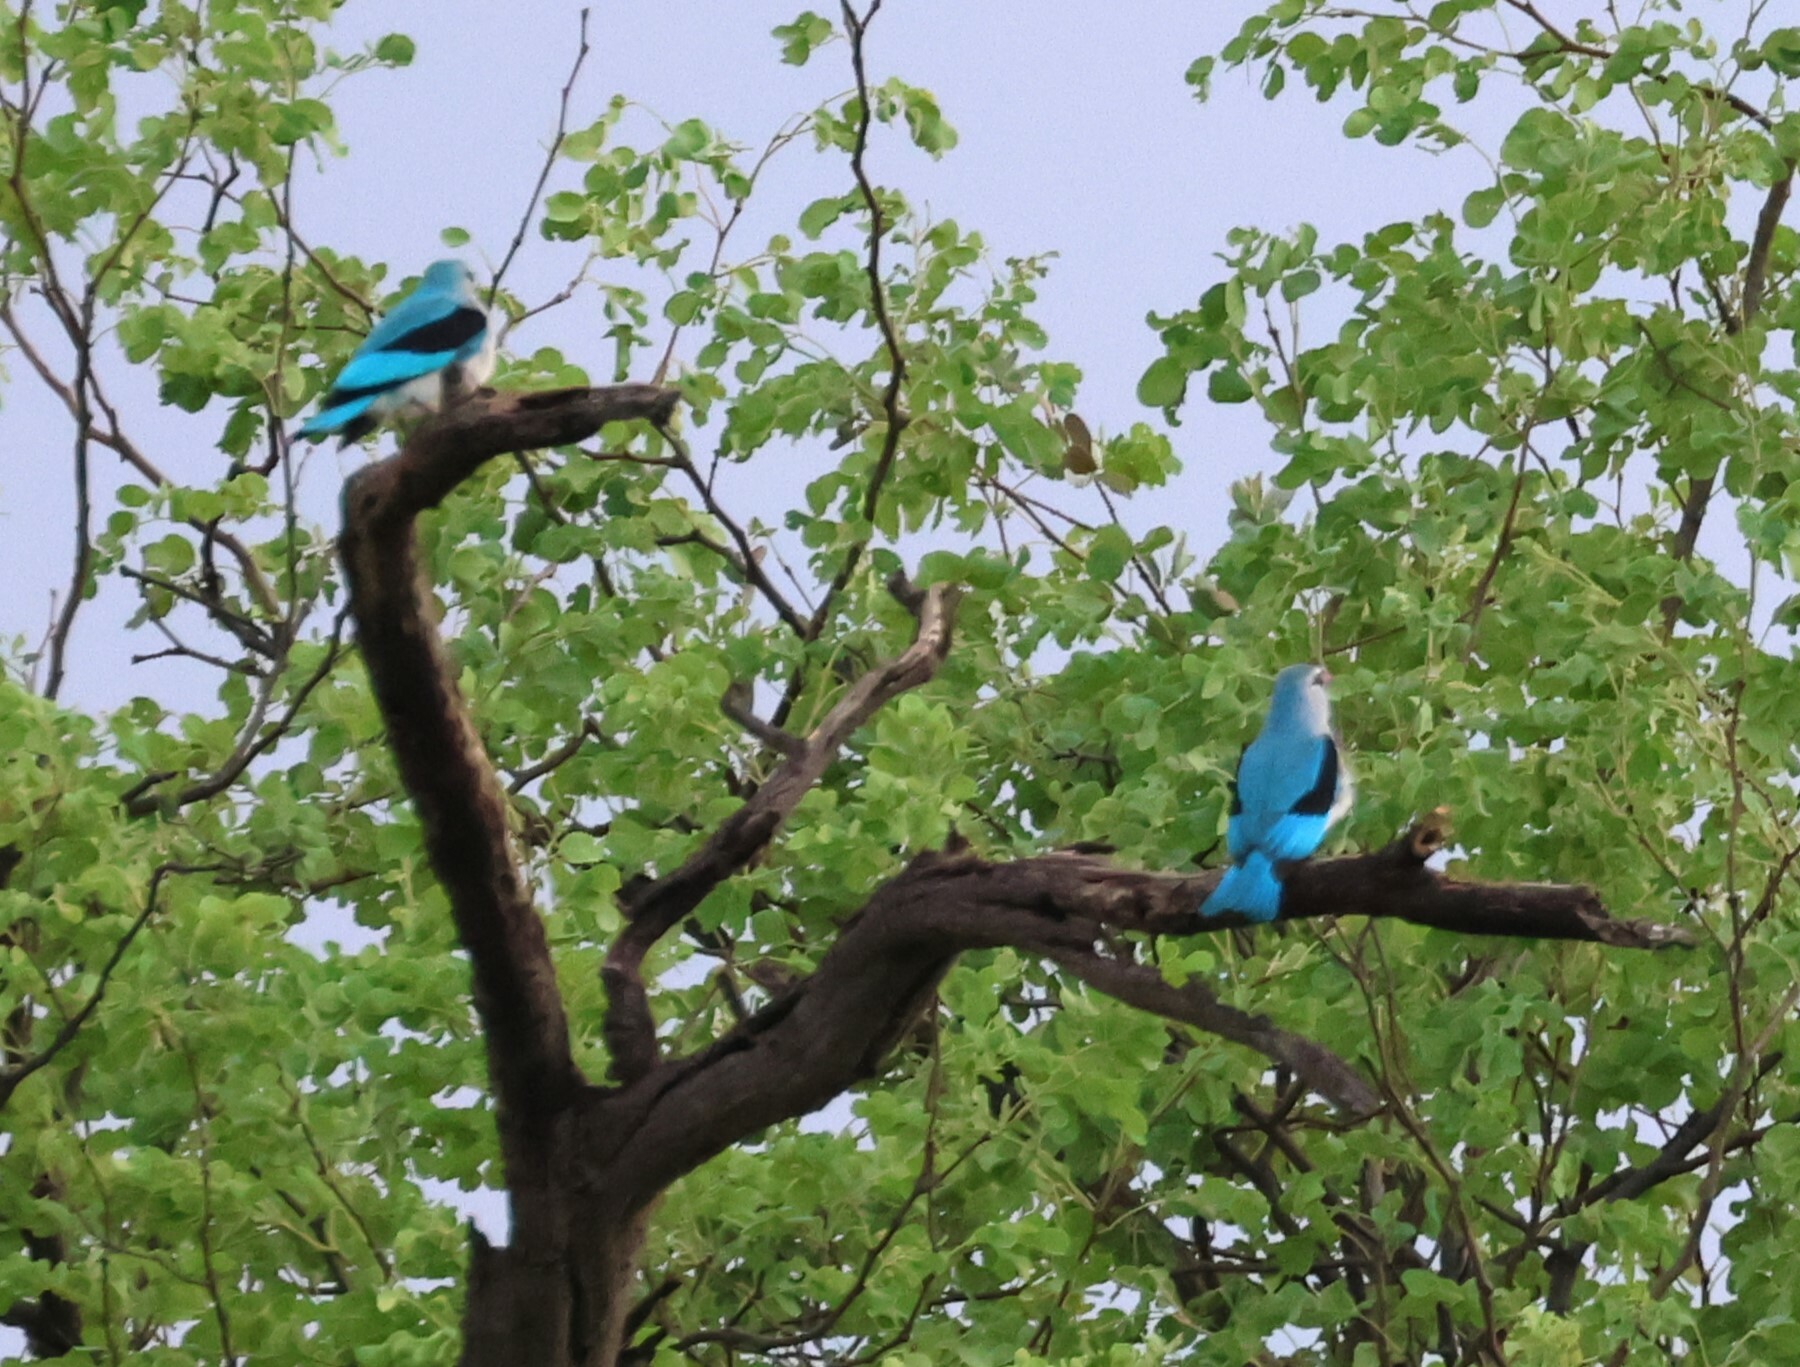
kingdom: Animalia
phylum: Chordata
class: Aves
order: Coraciiformes
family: Alcedinidae
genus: Halcyon
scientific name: Halcyon senegalensis
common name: Woodland kingfisher
